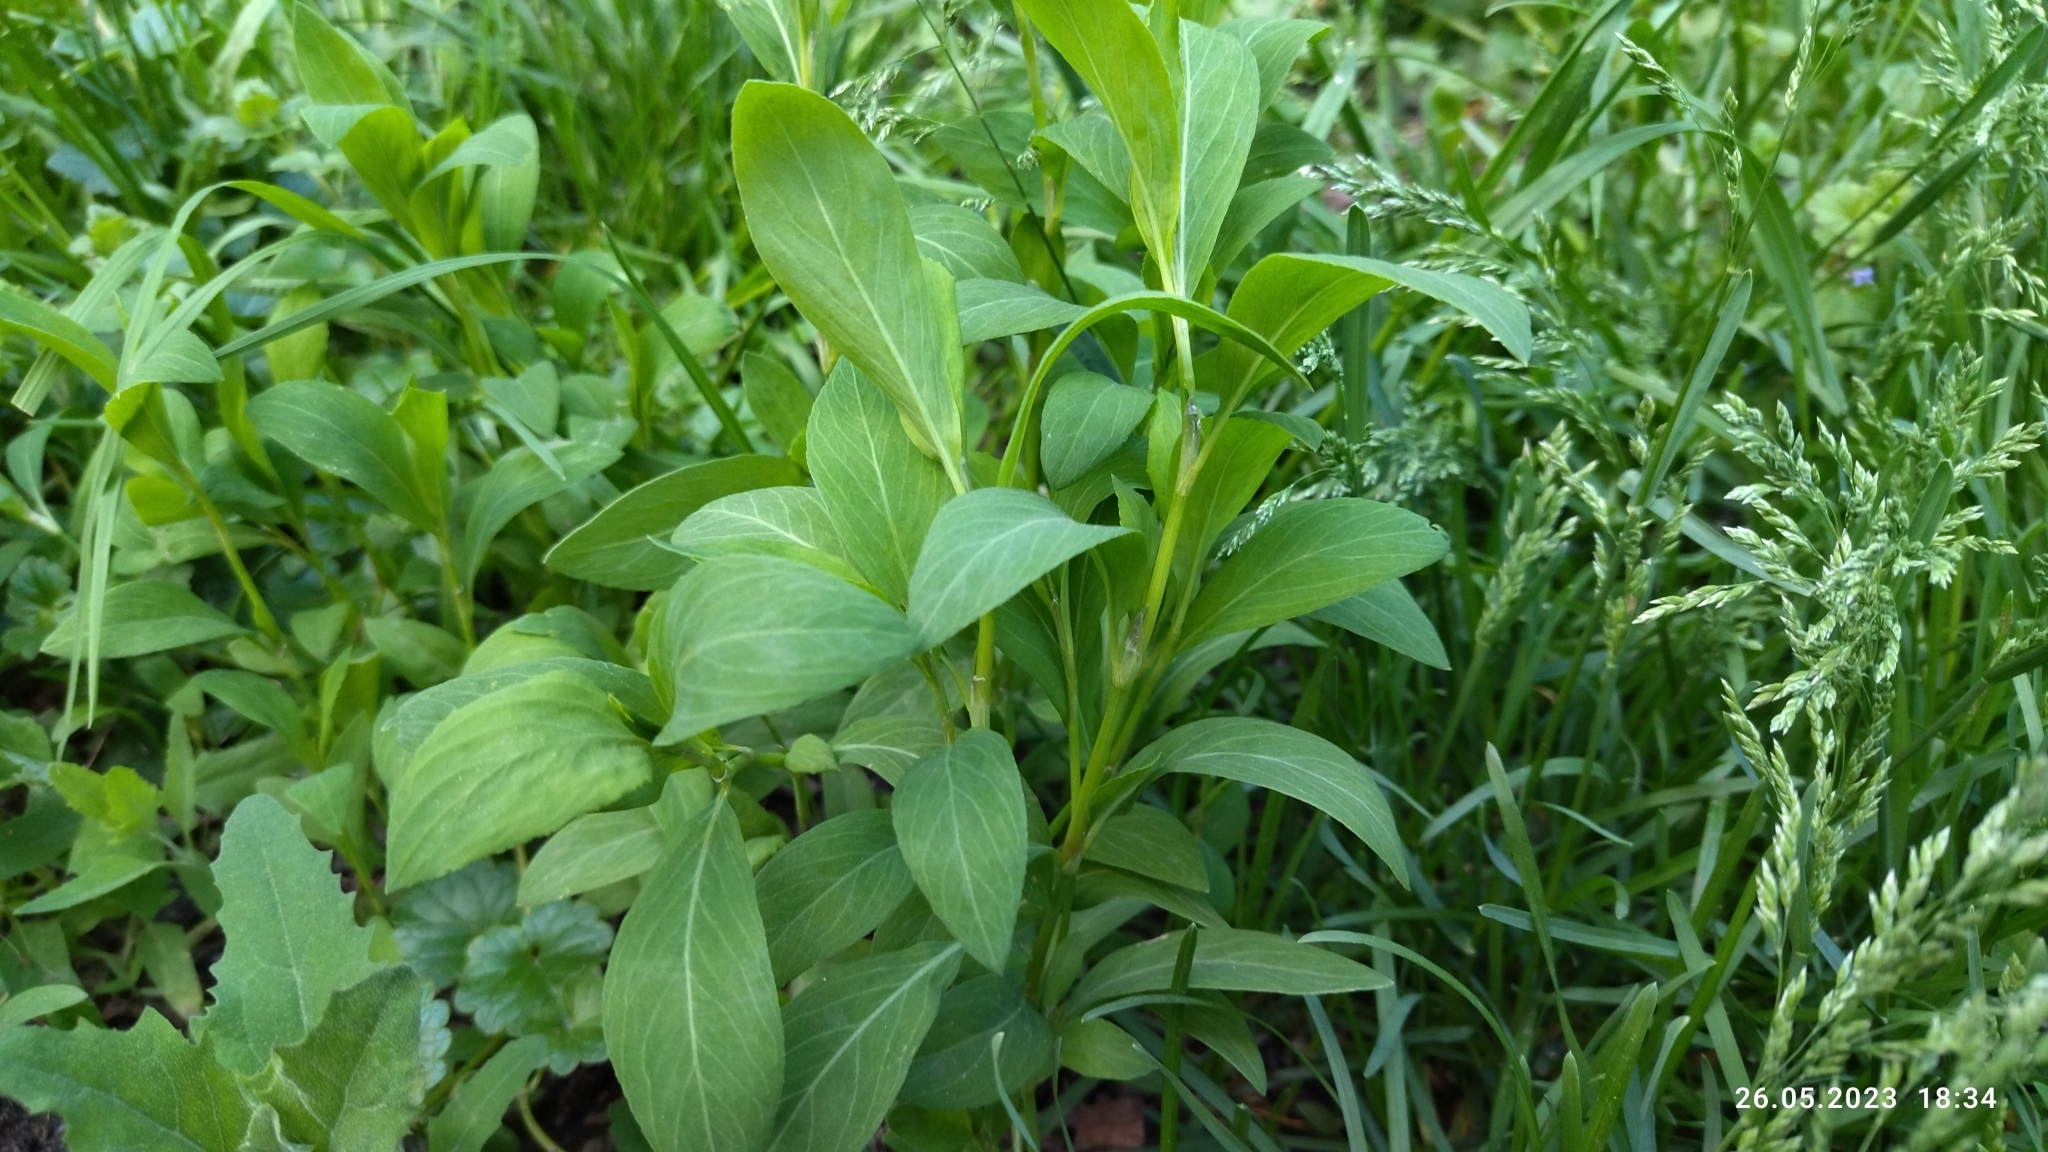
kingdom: Plantae
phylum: Tracheophyta
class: Magnoliopsida
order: Caryophyllales
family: Polygonaceae
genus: Polygonum
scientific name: Polygonum
